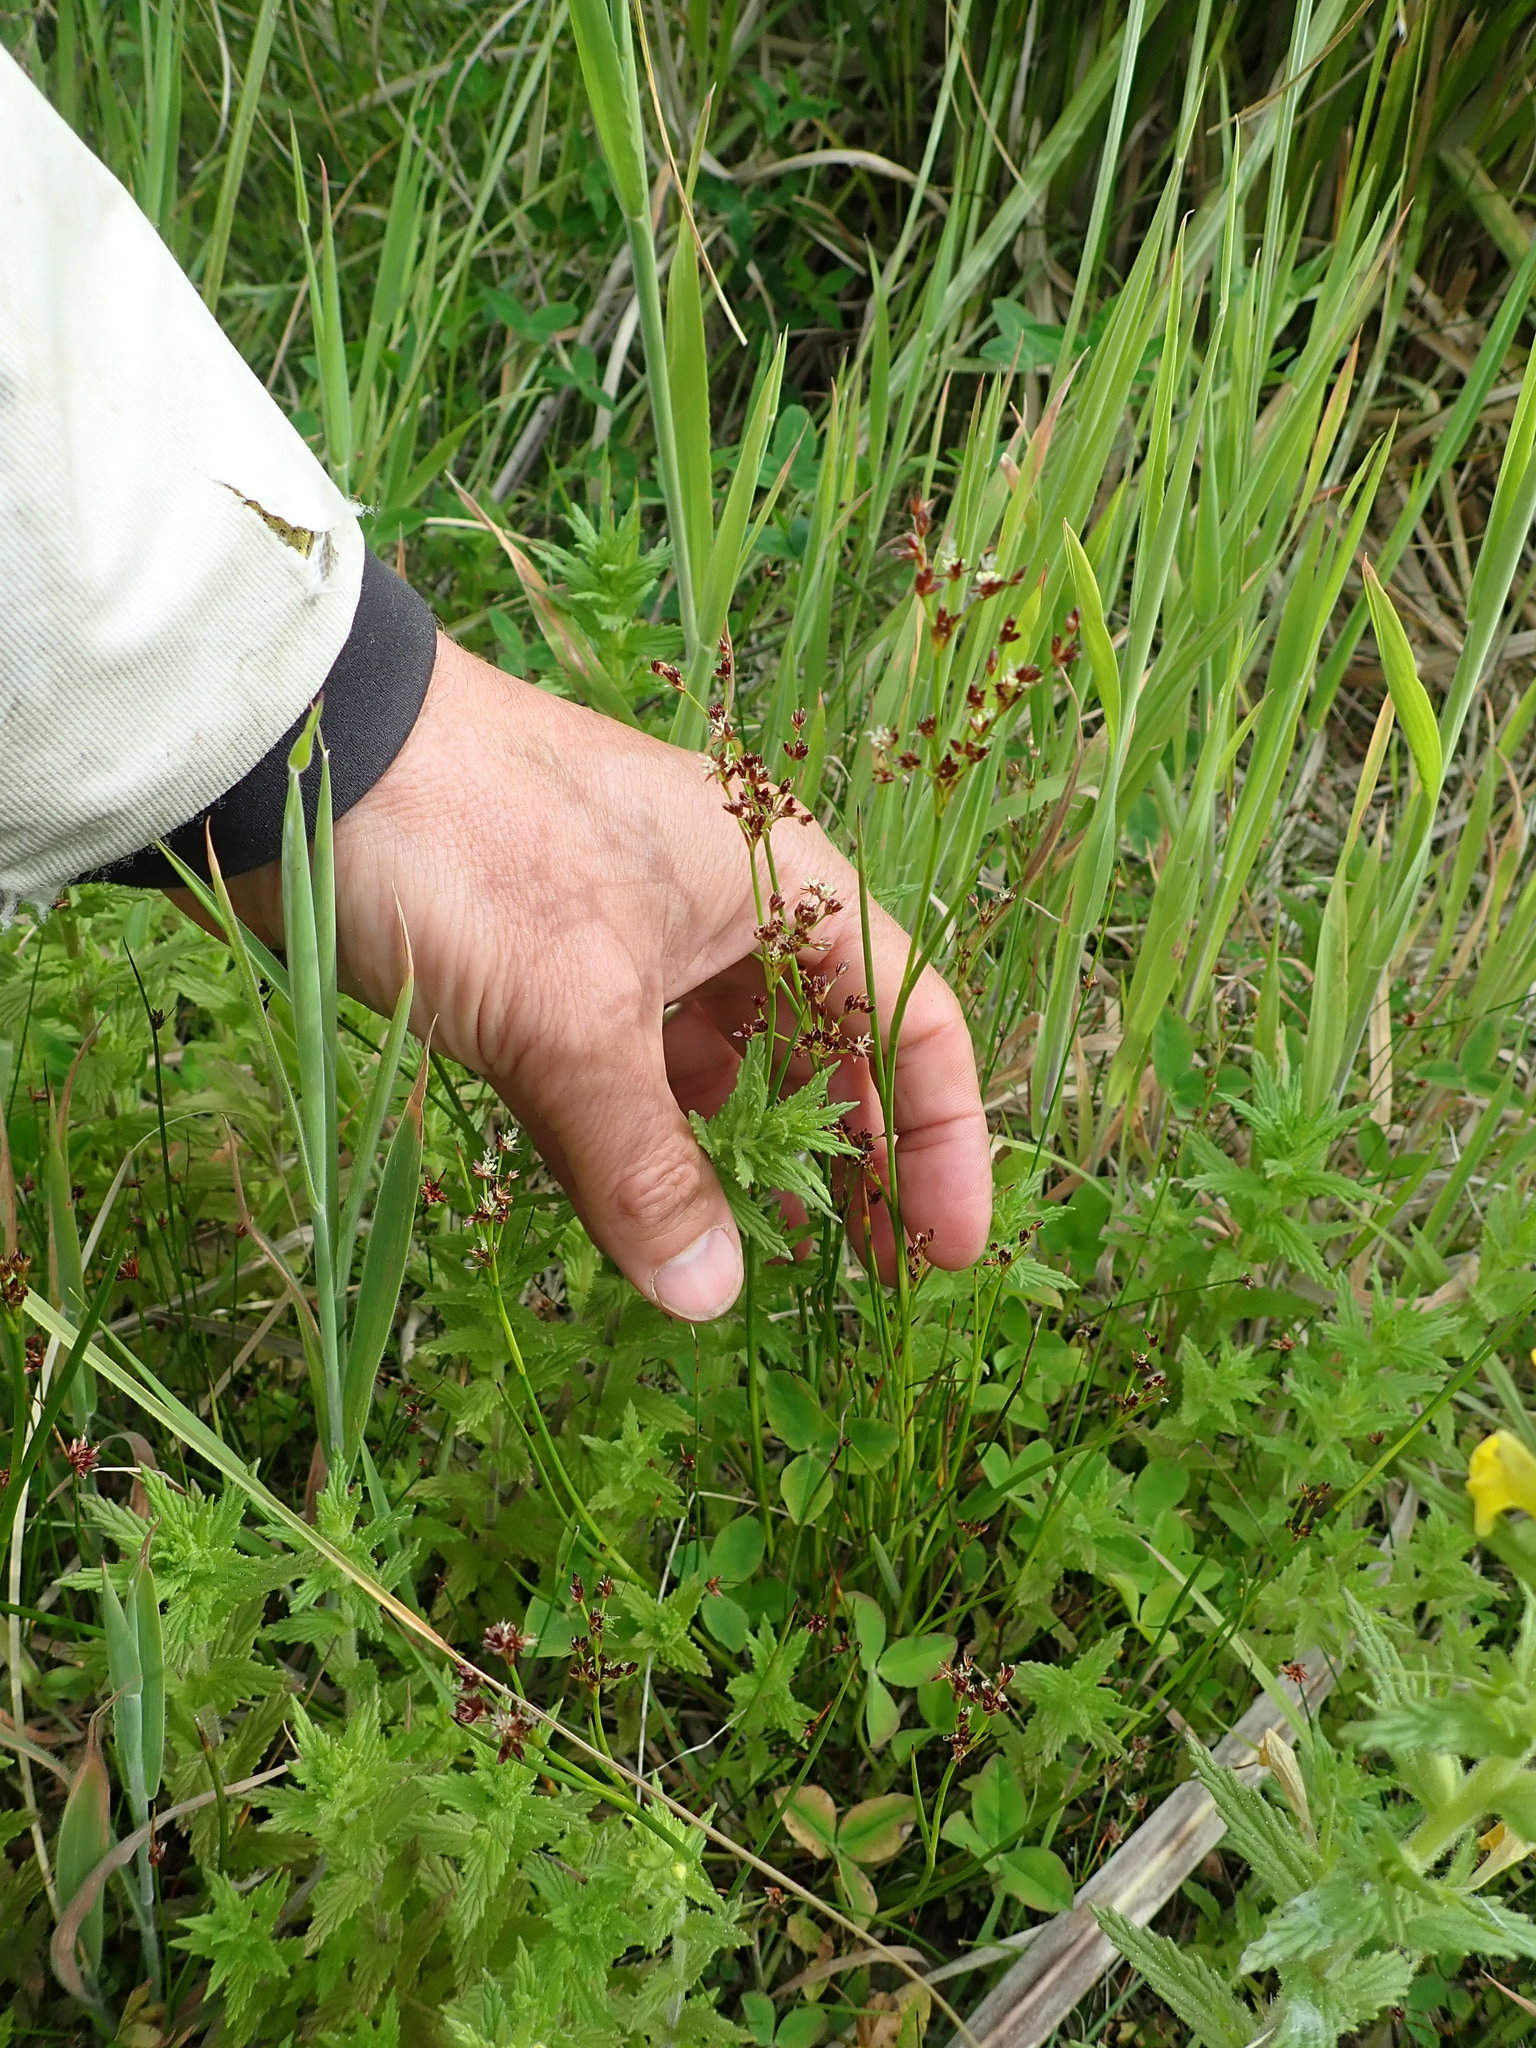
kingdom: Plantae
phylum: Tracheophyta
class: Liliopsida
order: Poales
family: Juncaceae
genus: Juncus
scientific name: Juncus articulatus
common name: Jointed rush
